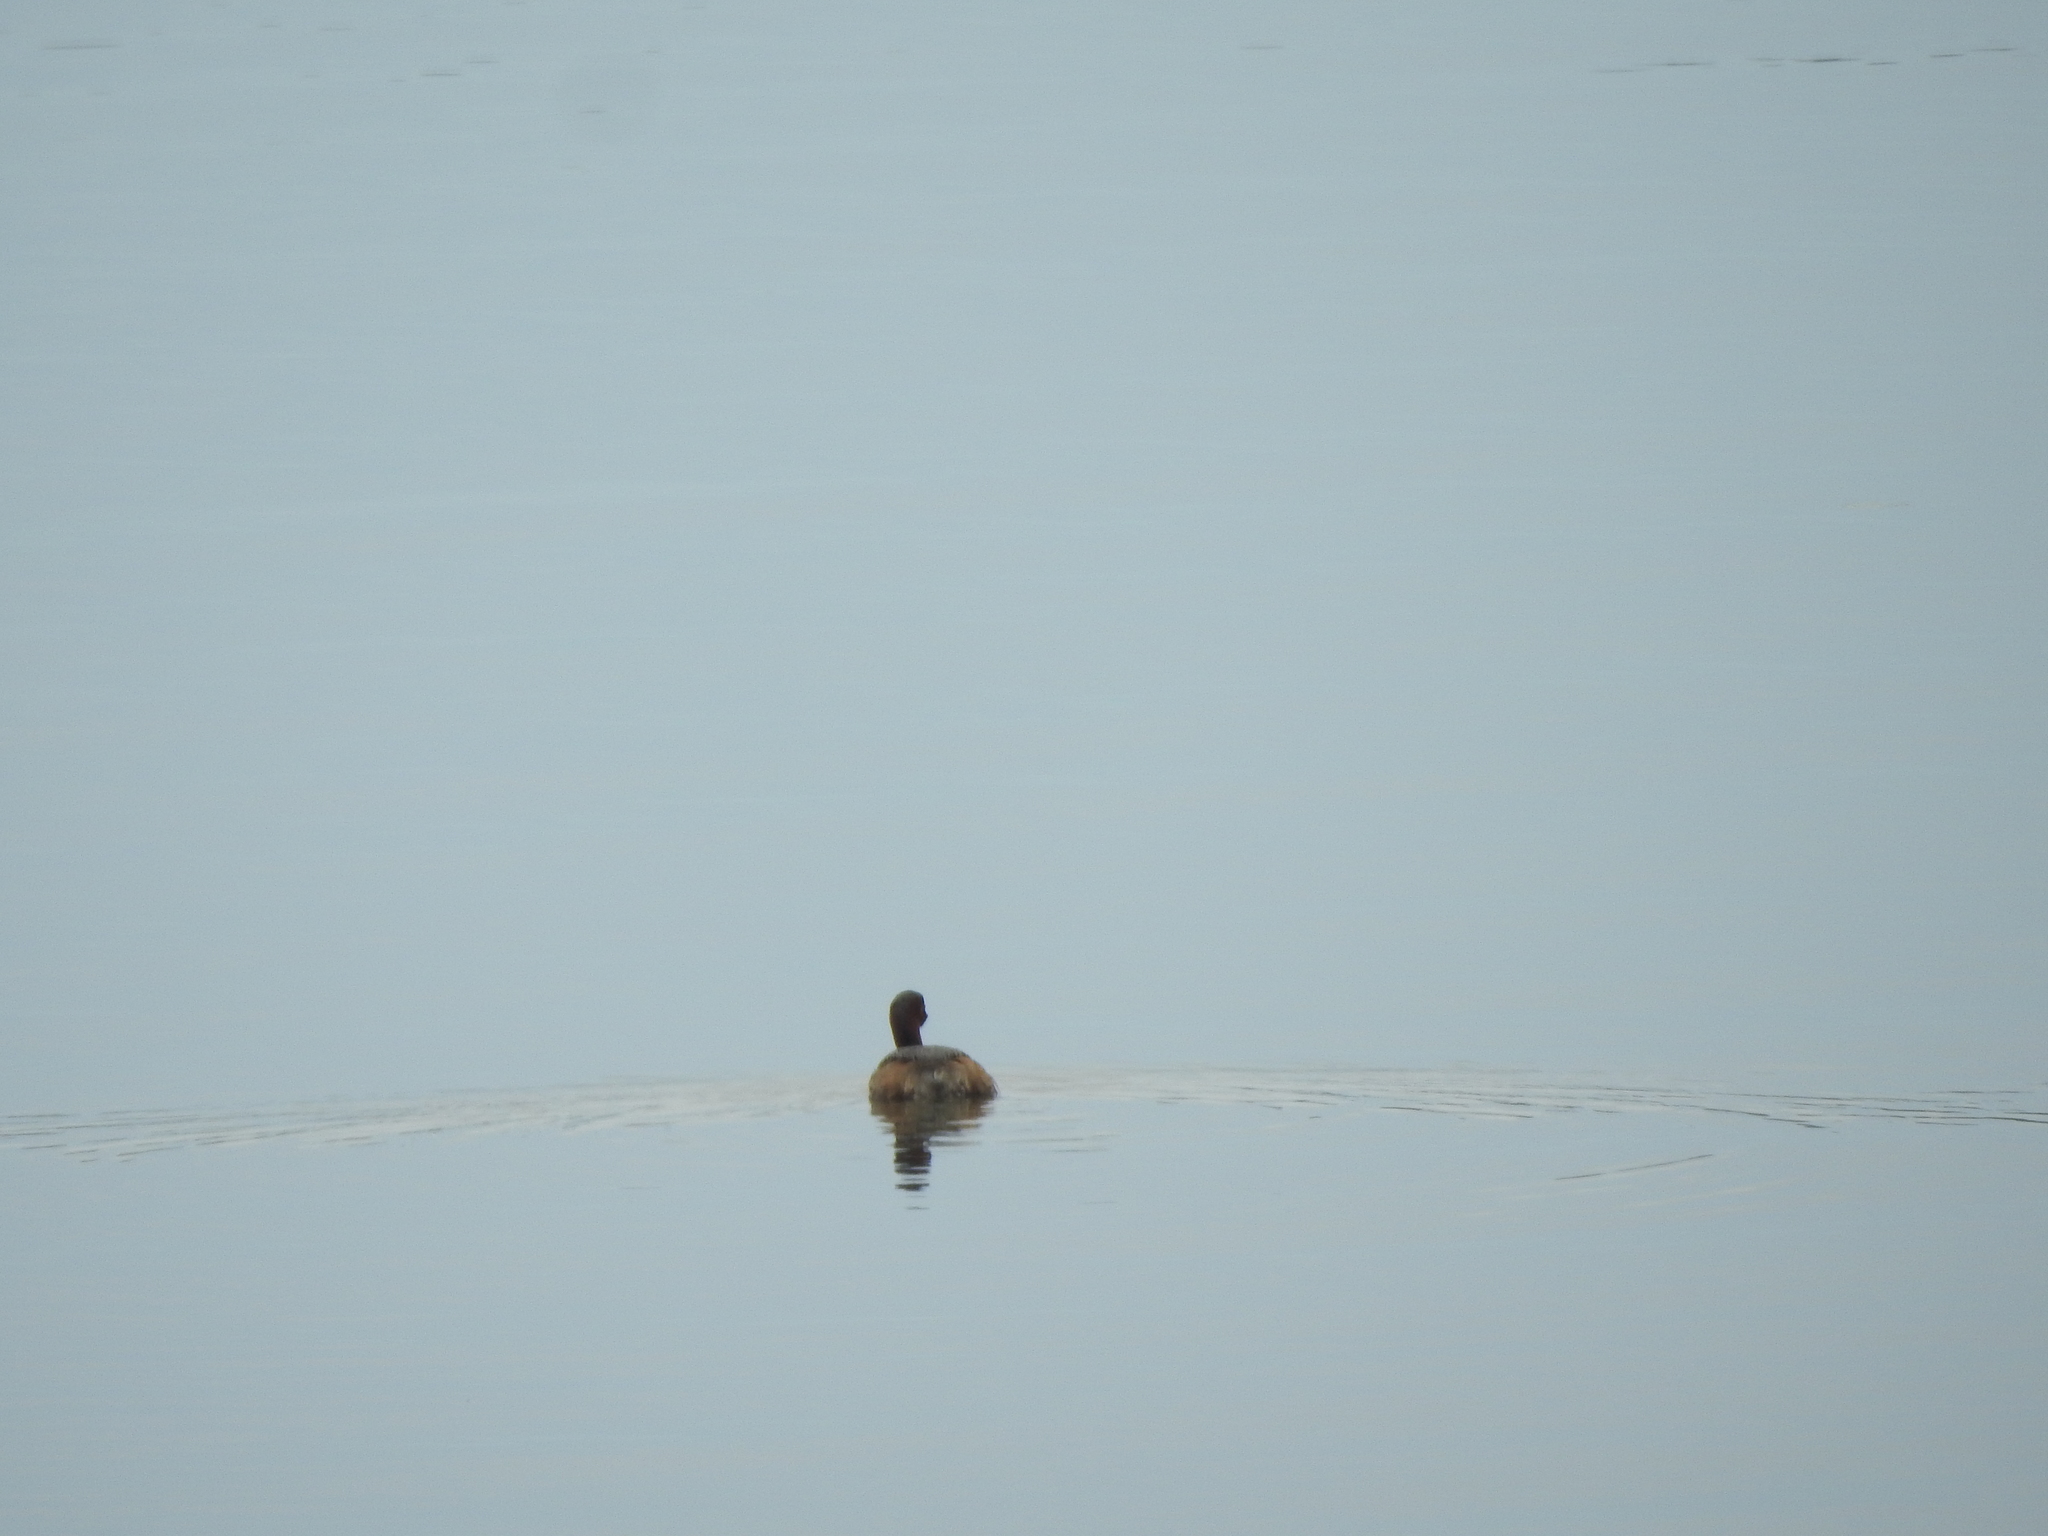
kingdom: Animalia
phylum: Chordata
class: Aves
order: Podicipediformes
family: Podicipedidae
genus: Tachybaptus
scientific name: Tachybaptus ruficollis
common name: Little grebe
